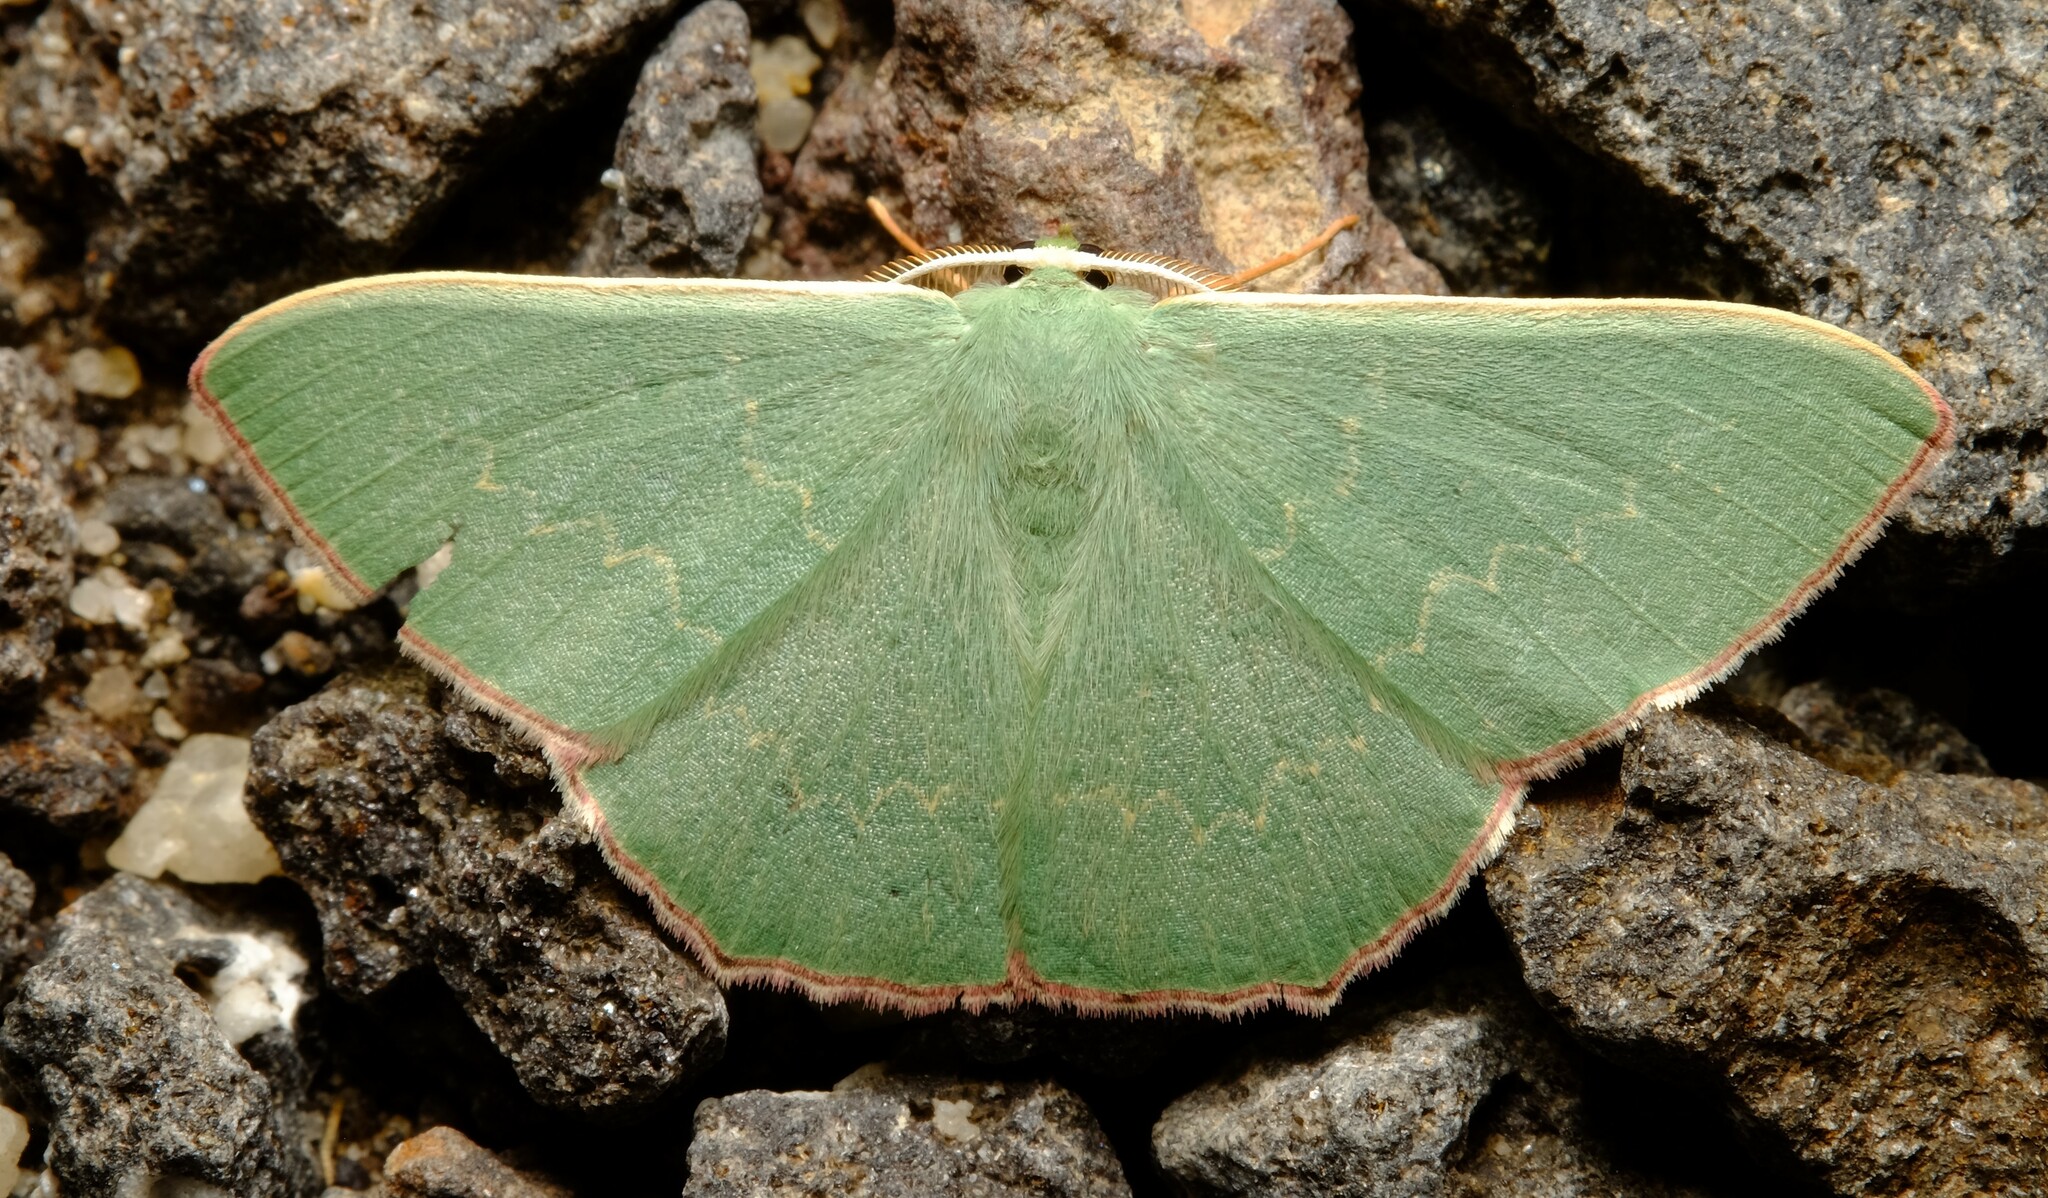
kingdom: Animalia
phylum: Arthropoda
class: Insecta
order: Lepidoptera
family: Geometridae
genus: Prasinocyma
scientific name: Prasinocyma semicrocea
